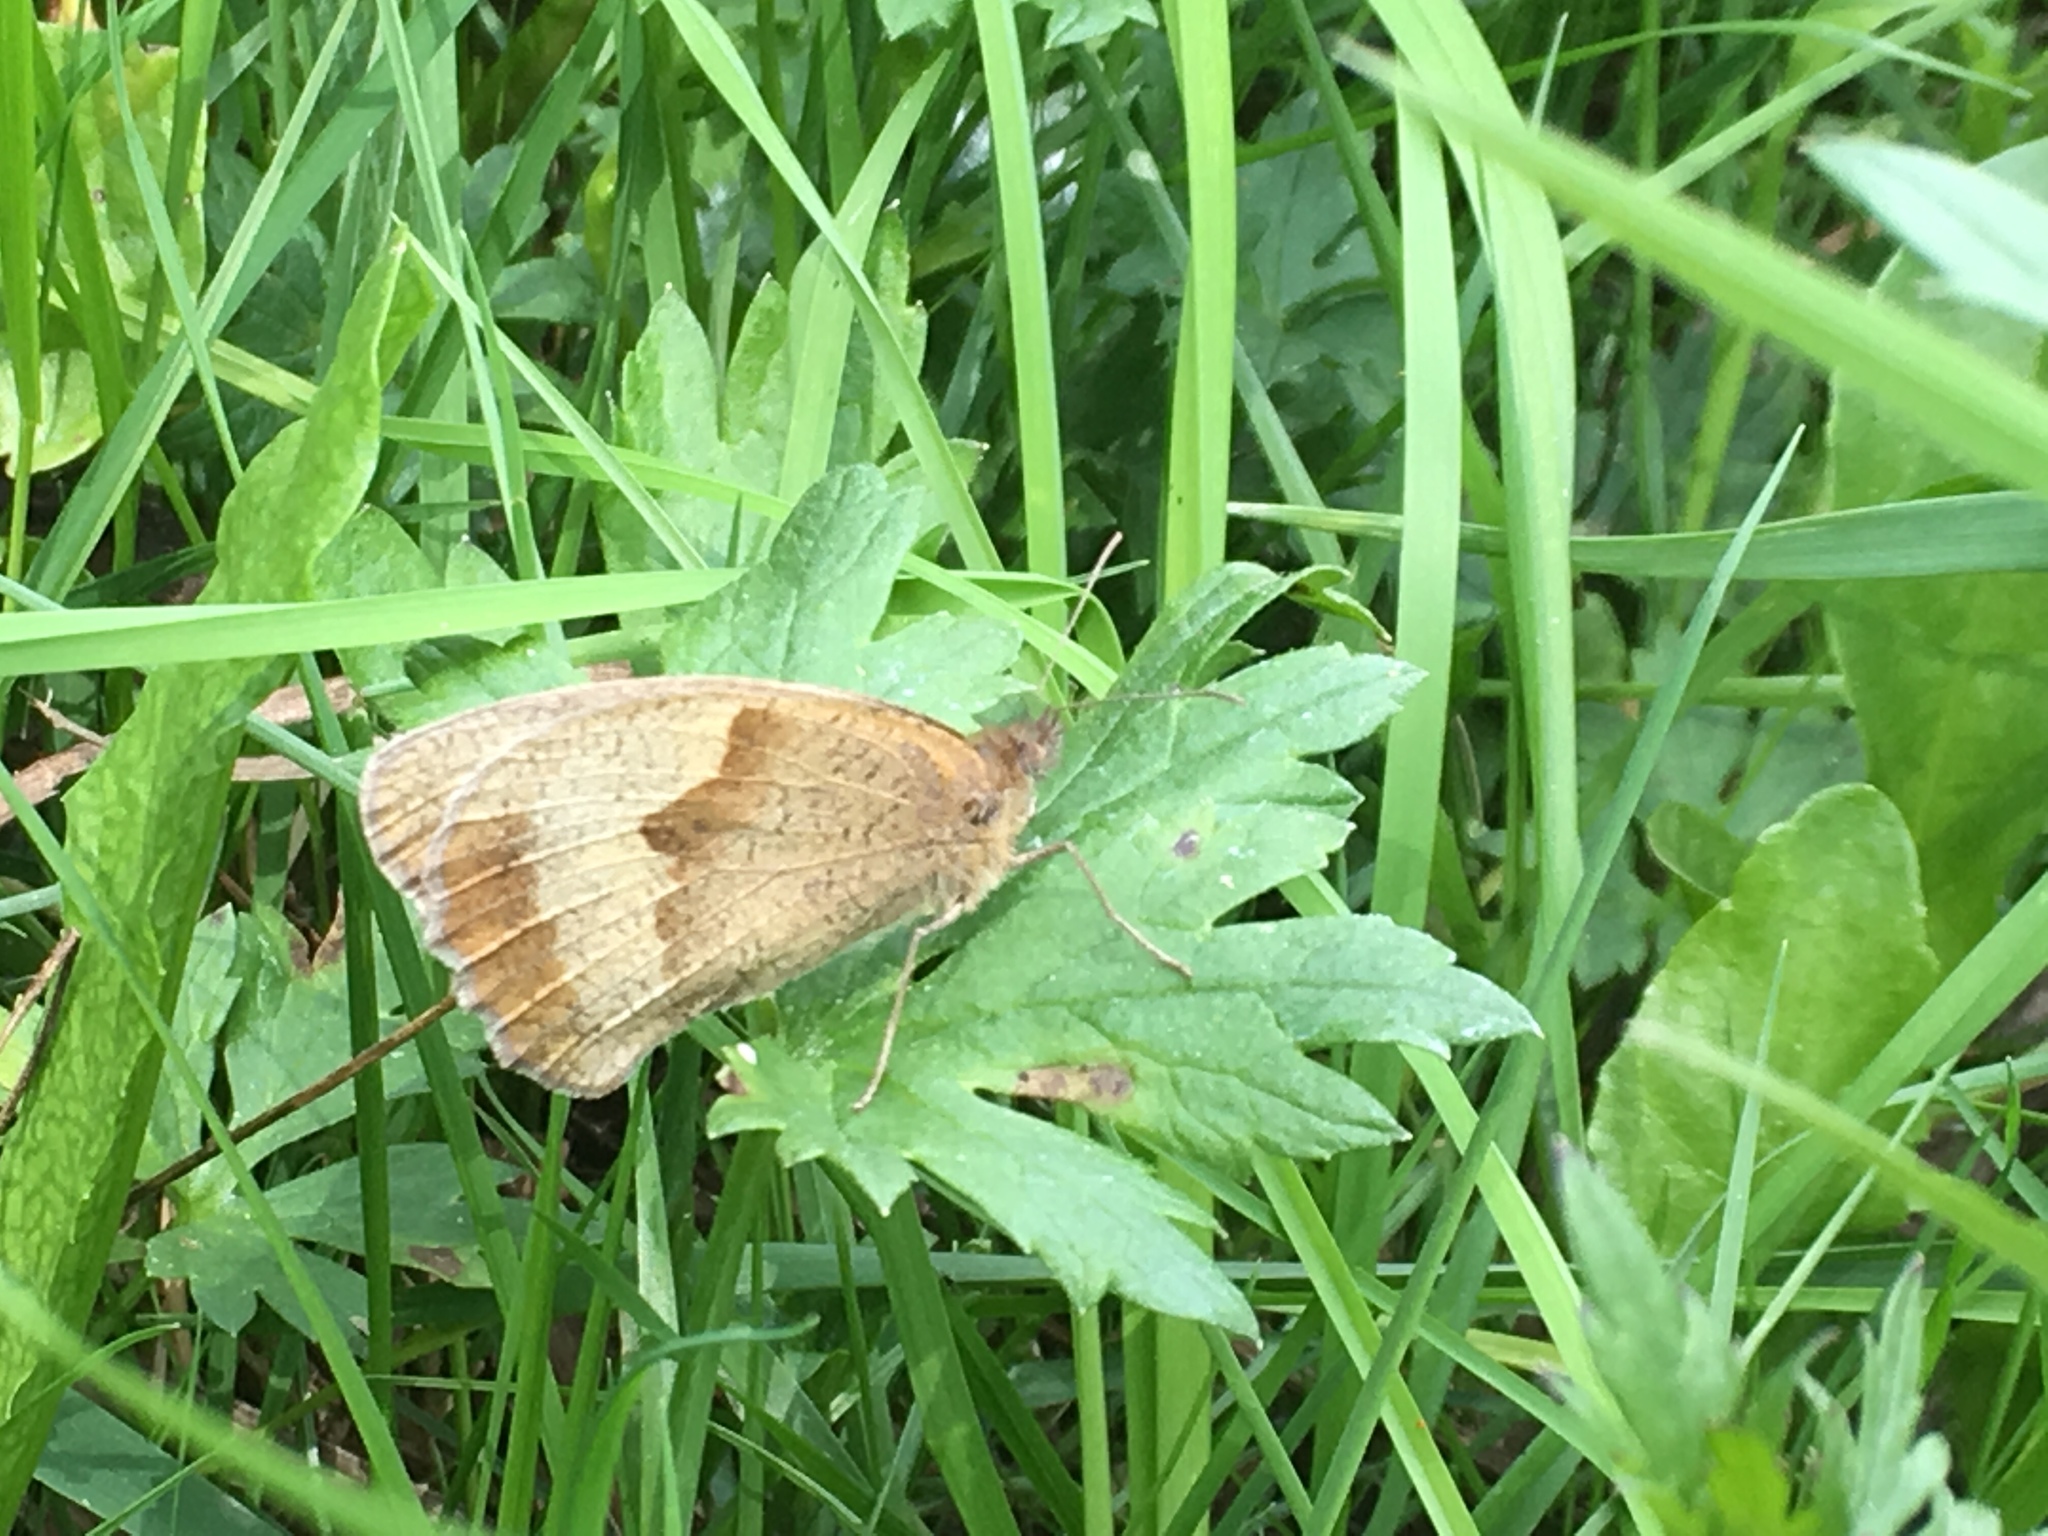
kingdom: Animalia
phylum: Arthropoda
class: Insecta
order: Lepidoptera
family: Nymphalidae
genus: Maniola
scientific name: Maniola jurtina
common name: Meadow brown
